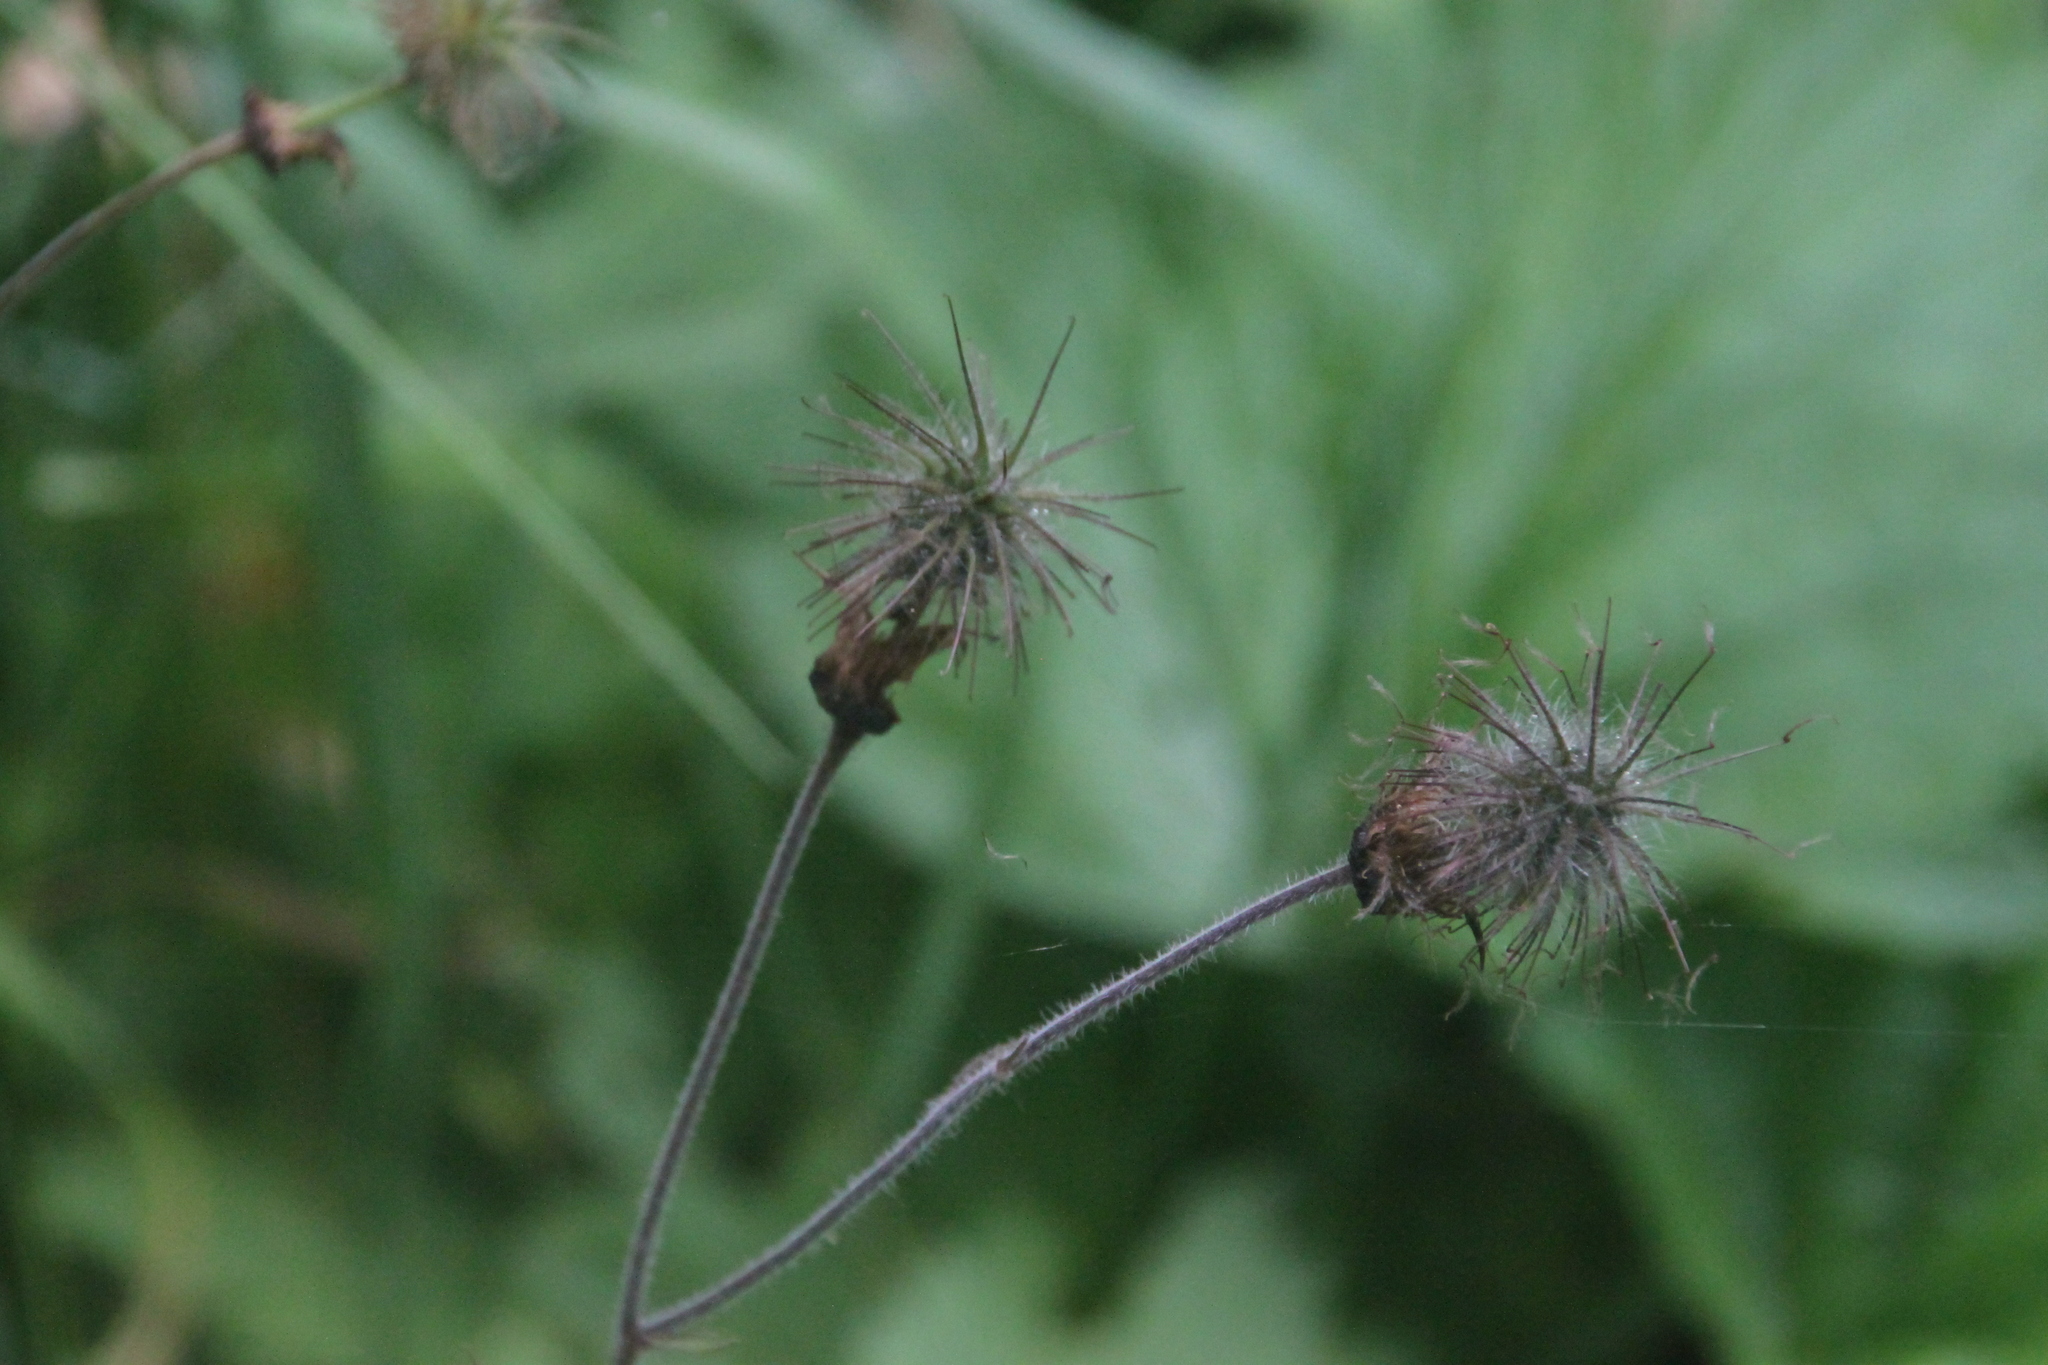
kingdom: Plantae
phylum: Tracheophyta
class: Magnoliopsida
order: Rosales
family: Rosaceae
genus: Geum
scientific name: Geum rivale
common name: Water avens
